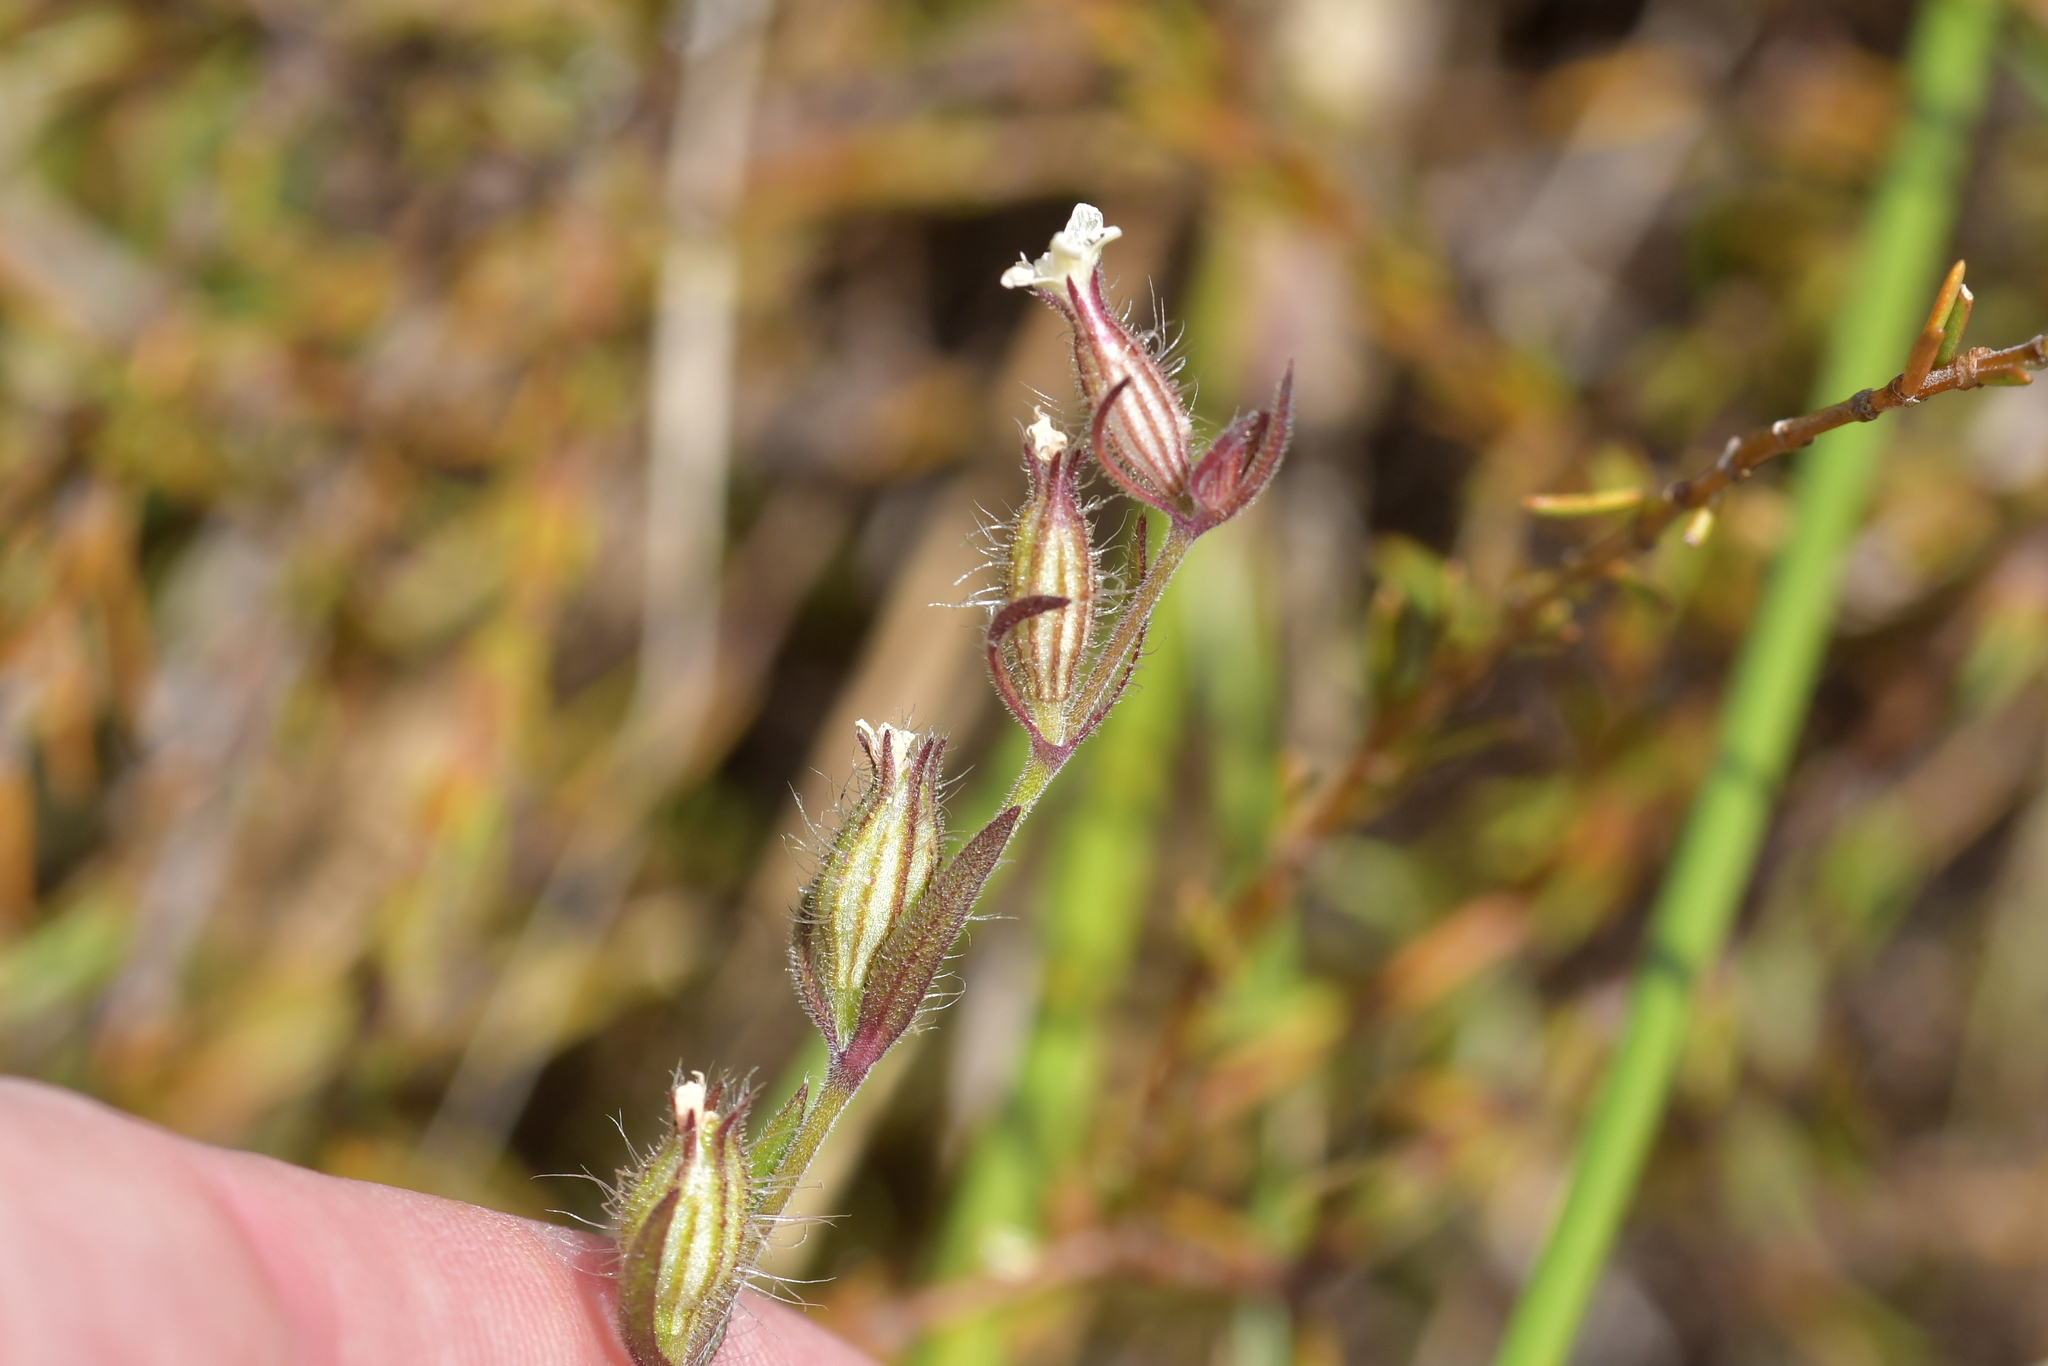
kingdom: Plantae
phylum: Tracheophyta
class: Magnoliopsida
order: Caryophyllales
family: Caryophyllaceae
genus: Silene
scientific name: Silene gallica
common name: Small-flowered catchfly
